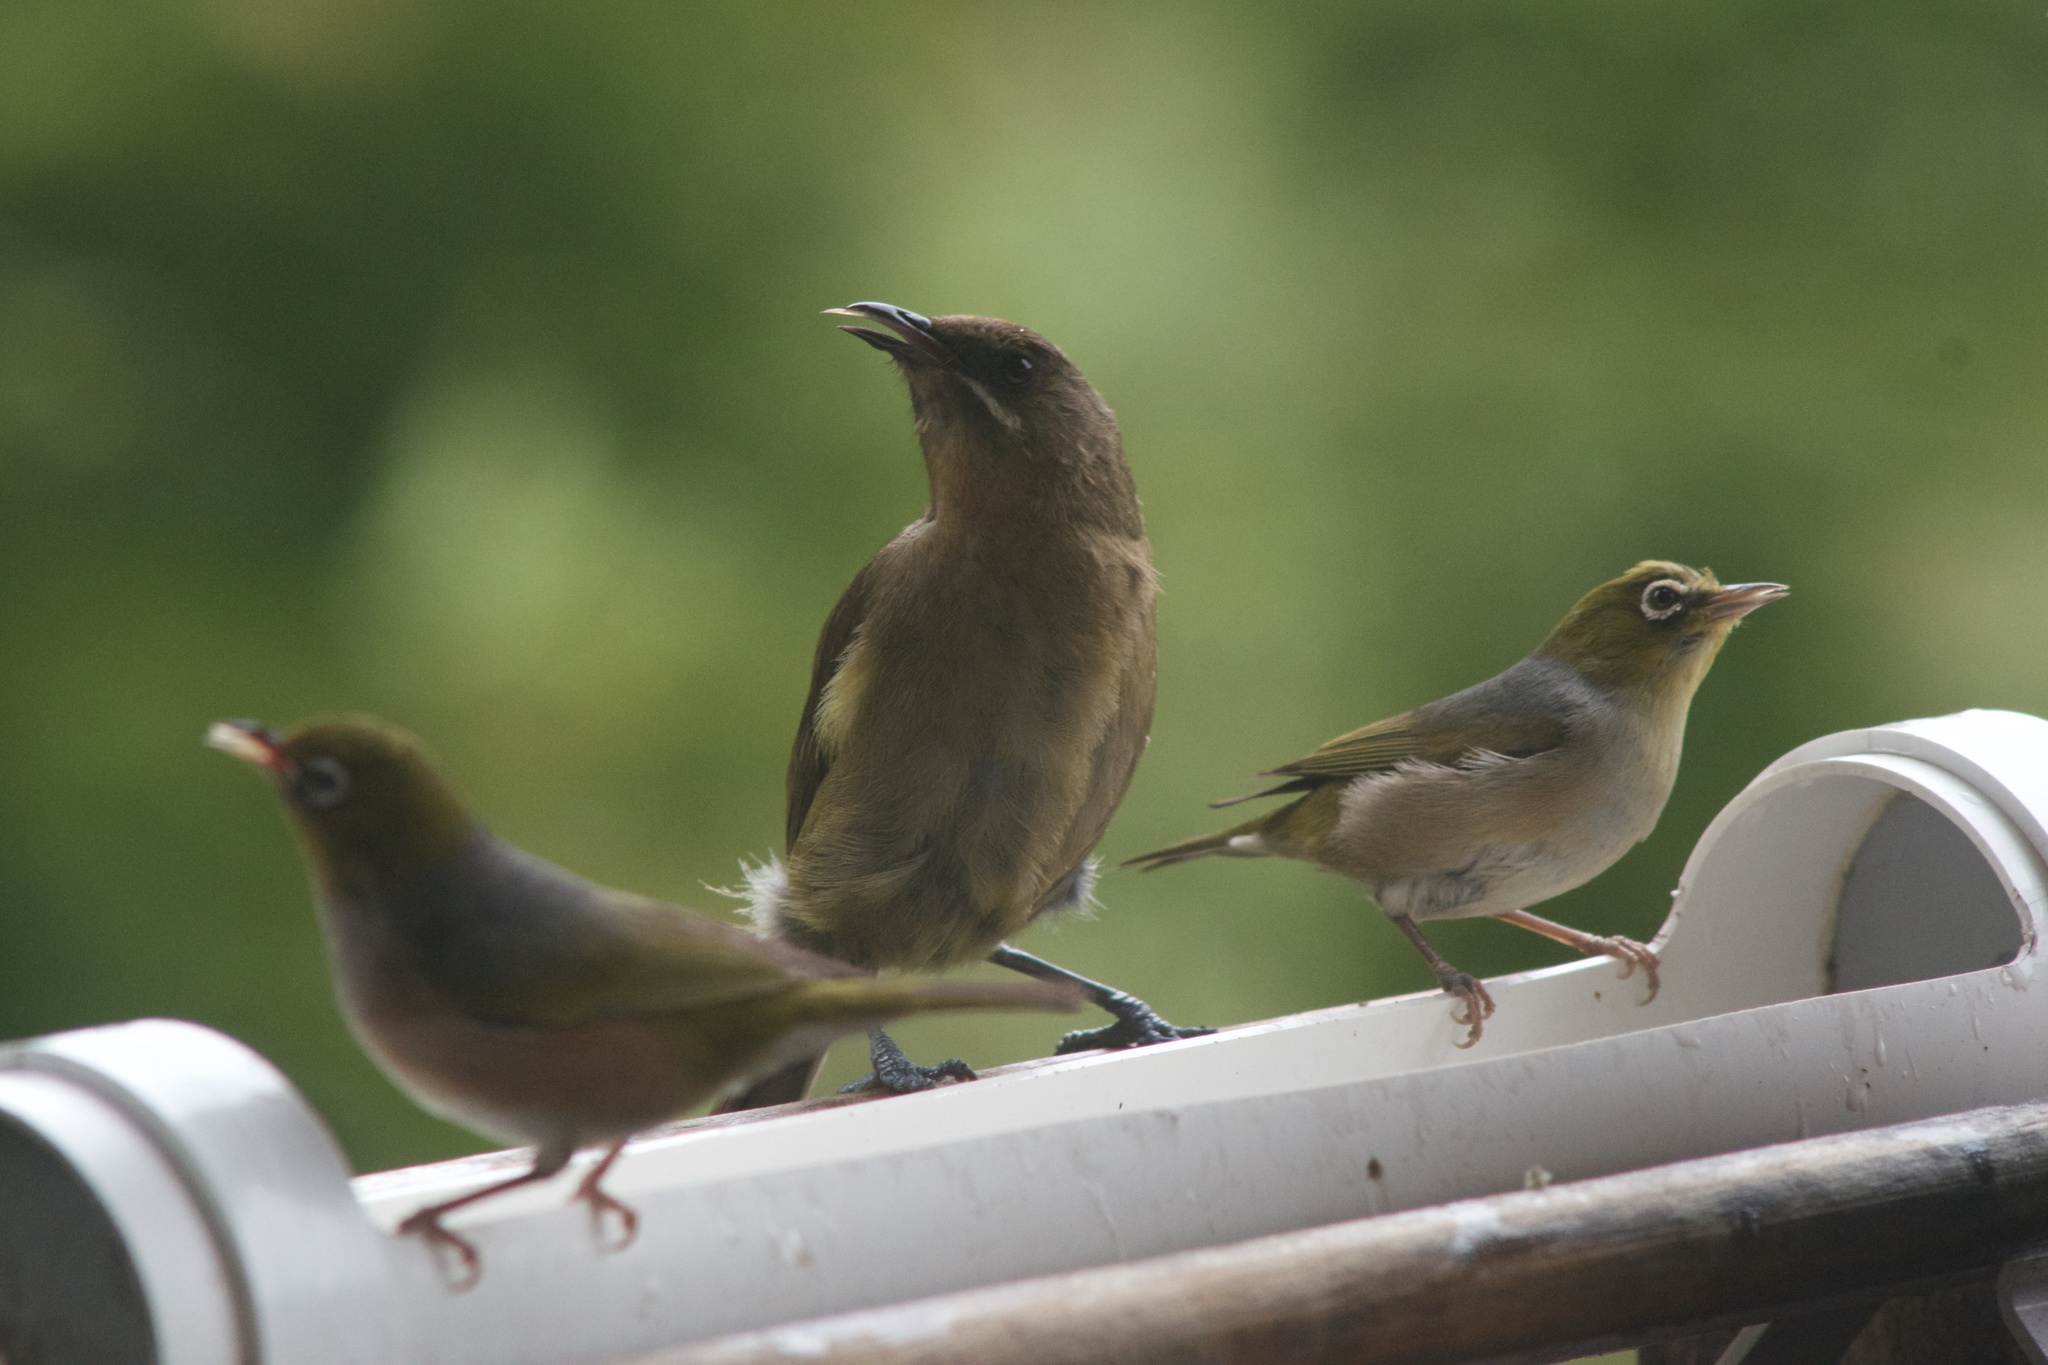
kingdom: Animalia
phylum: Chordata
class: Aves
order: Passeriformes
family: Meliphagidae
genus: Anthornis
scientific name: Anthornis melanura
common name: New zealand bellbird
